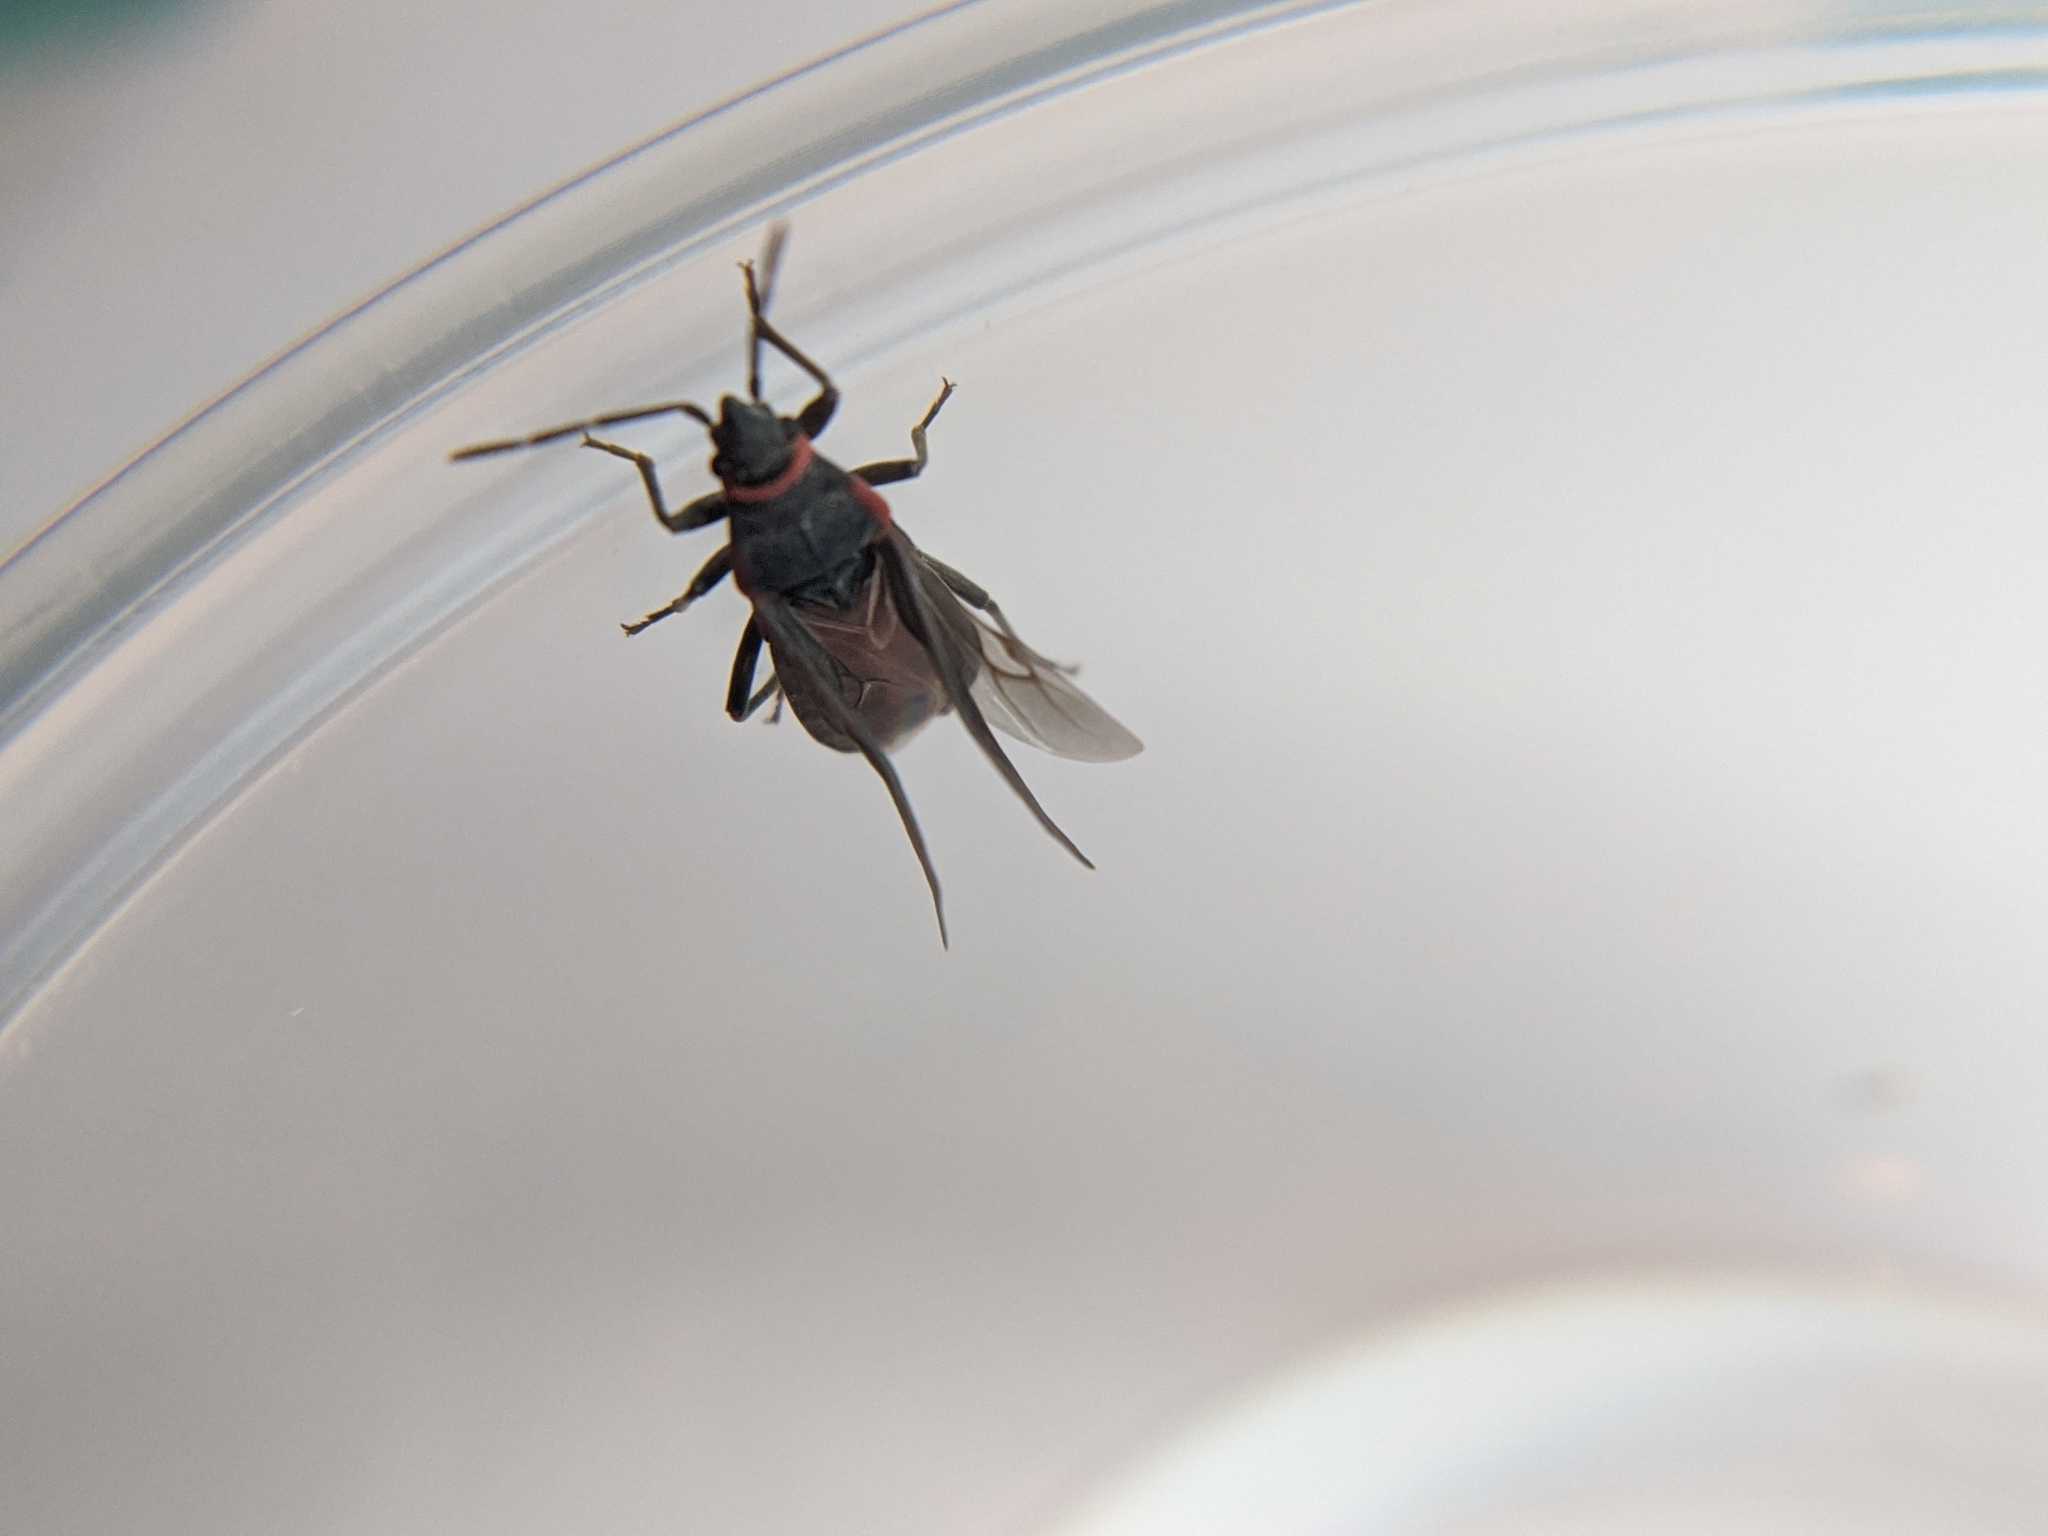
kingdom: Animalia
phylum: Arthropoda
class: Insecta
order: Hemiptera
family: Lygaeidae
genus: Melacoryphus
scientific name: Melacoryphus rubicollis
